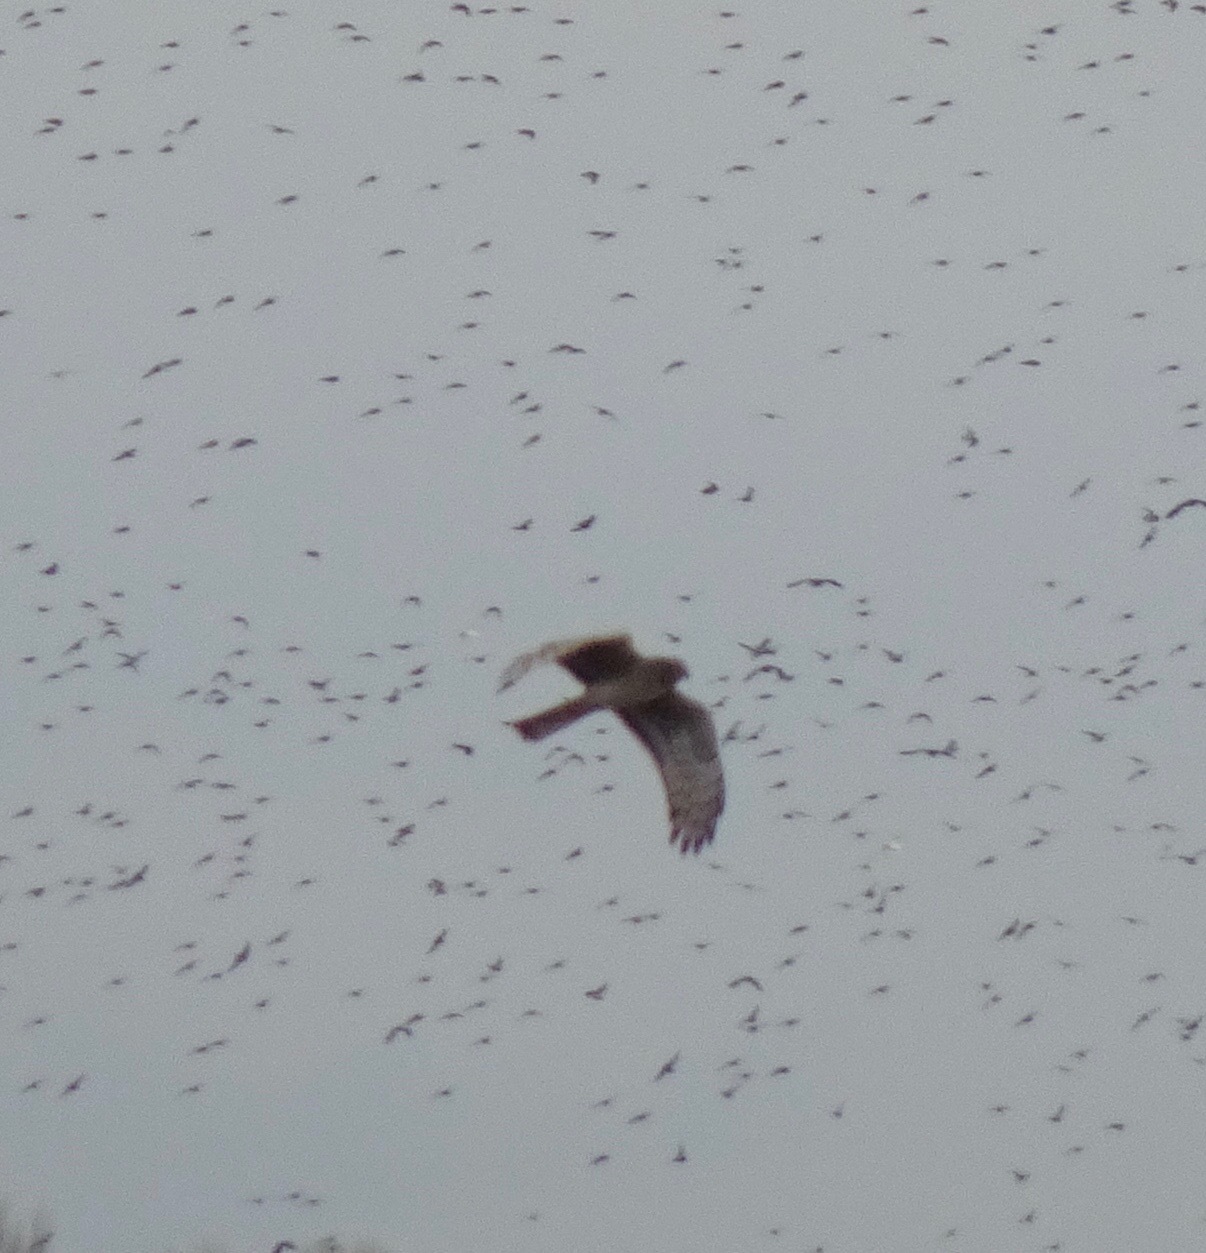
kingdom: Animalia
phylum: Chordata
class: Aves
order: Accipitriformes
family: Accipitridae
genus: Circus
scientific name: Circus cyaneus
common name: Hen harrier
